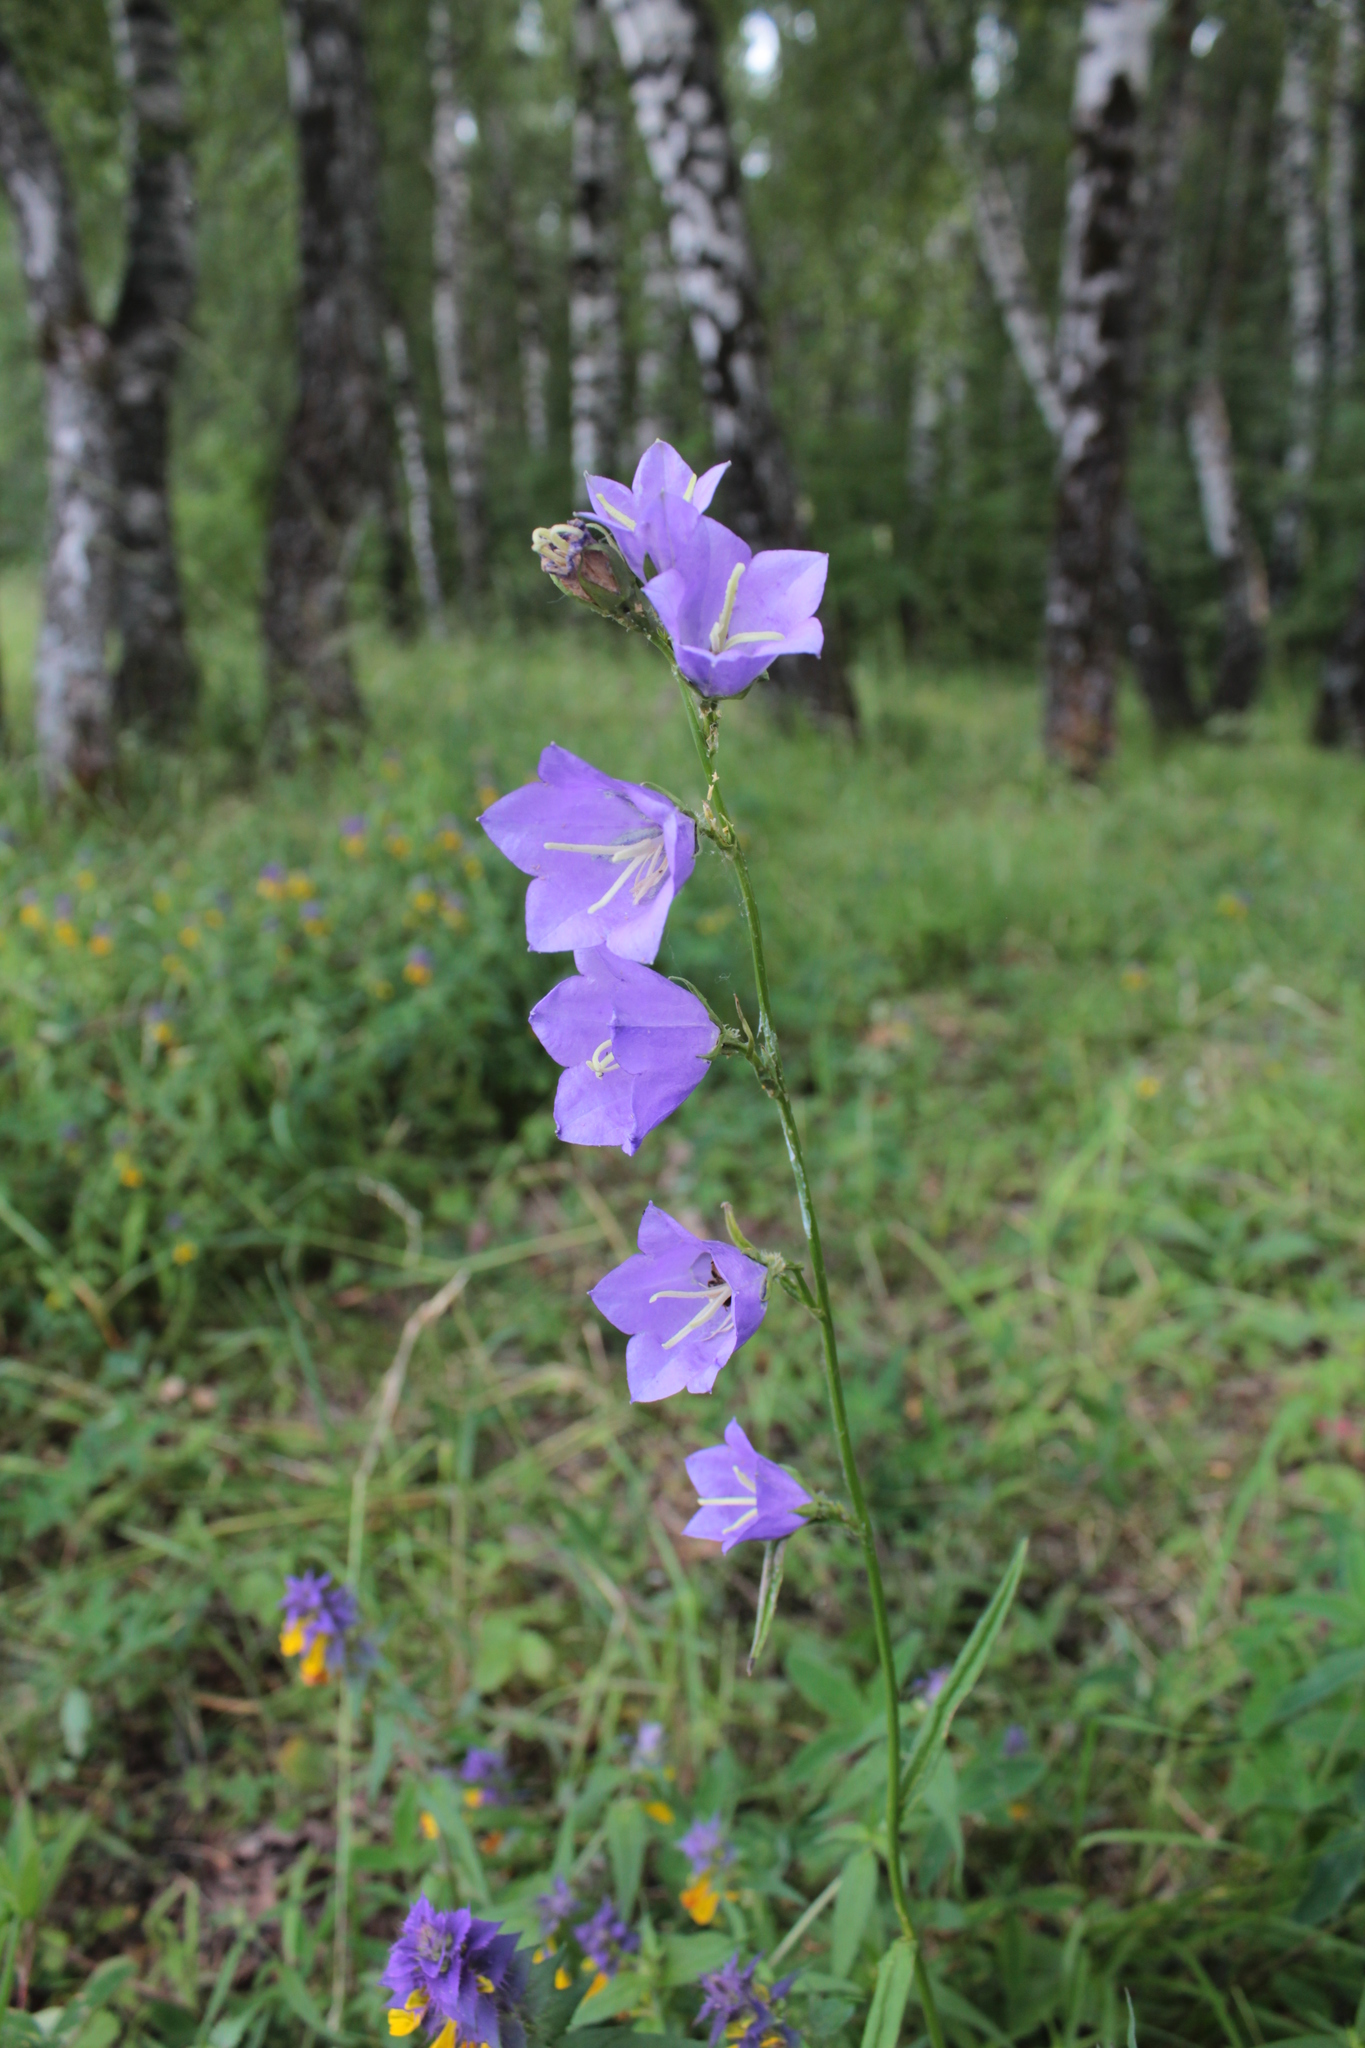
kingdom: Plantae
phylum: Tracheophyta
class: Magnoliopsida
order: Asterales
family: Campanulaceae
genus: Campanula
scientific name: Campanula persicifolia
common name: Peach-leaved bellflower
